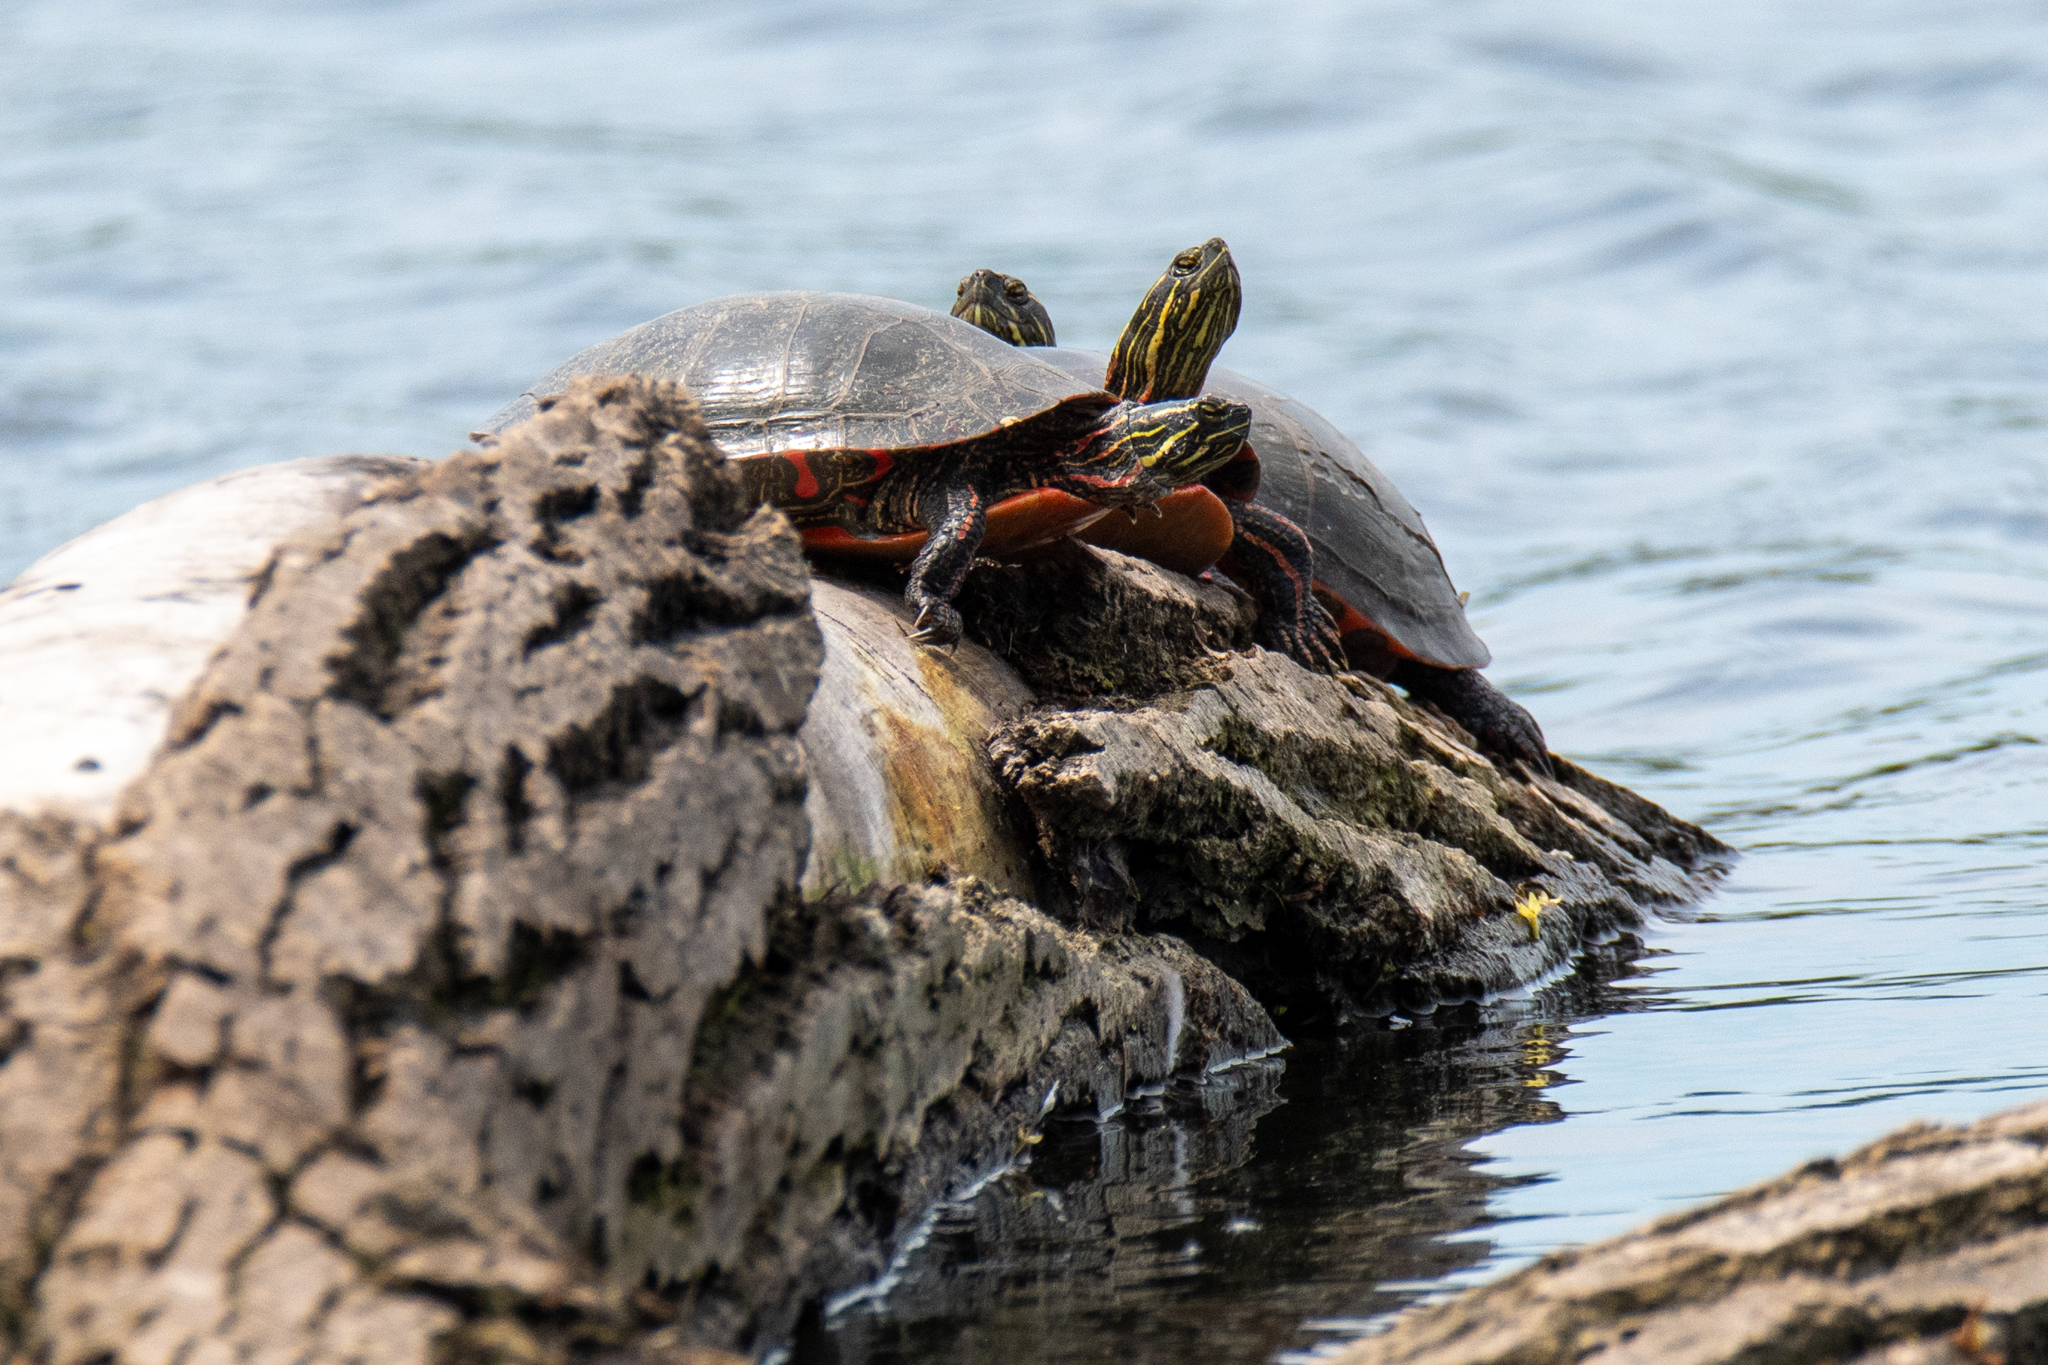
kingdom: Animalia
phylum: Chordata
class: Testudines
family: Emydidae
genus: Chrysemys
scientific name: Chrysemys picta
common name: Painted turtle
